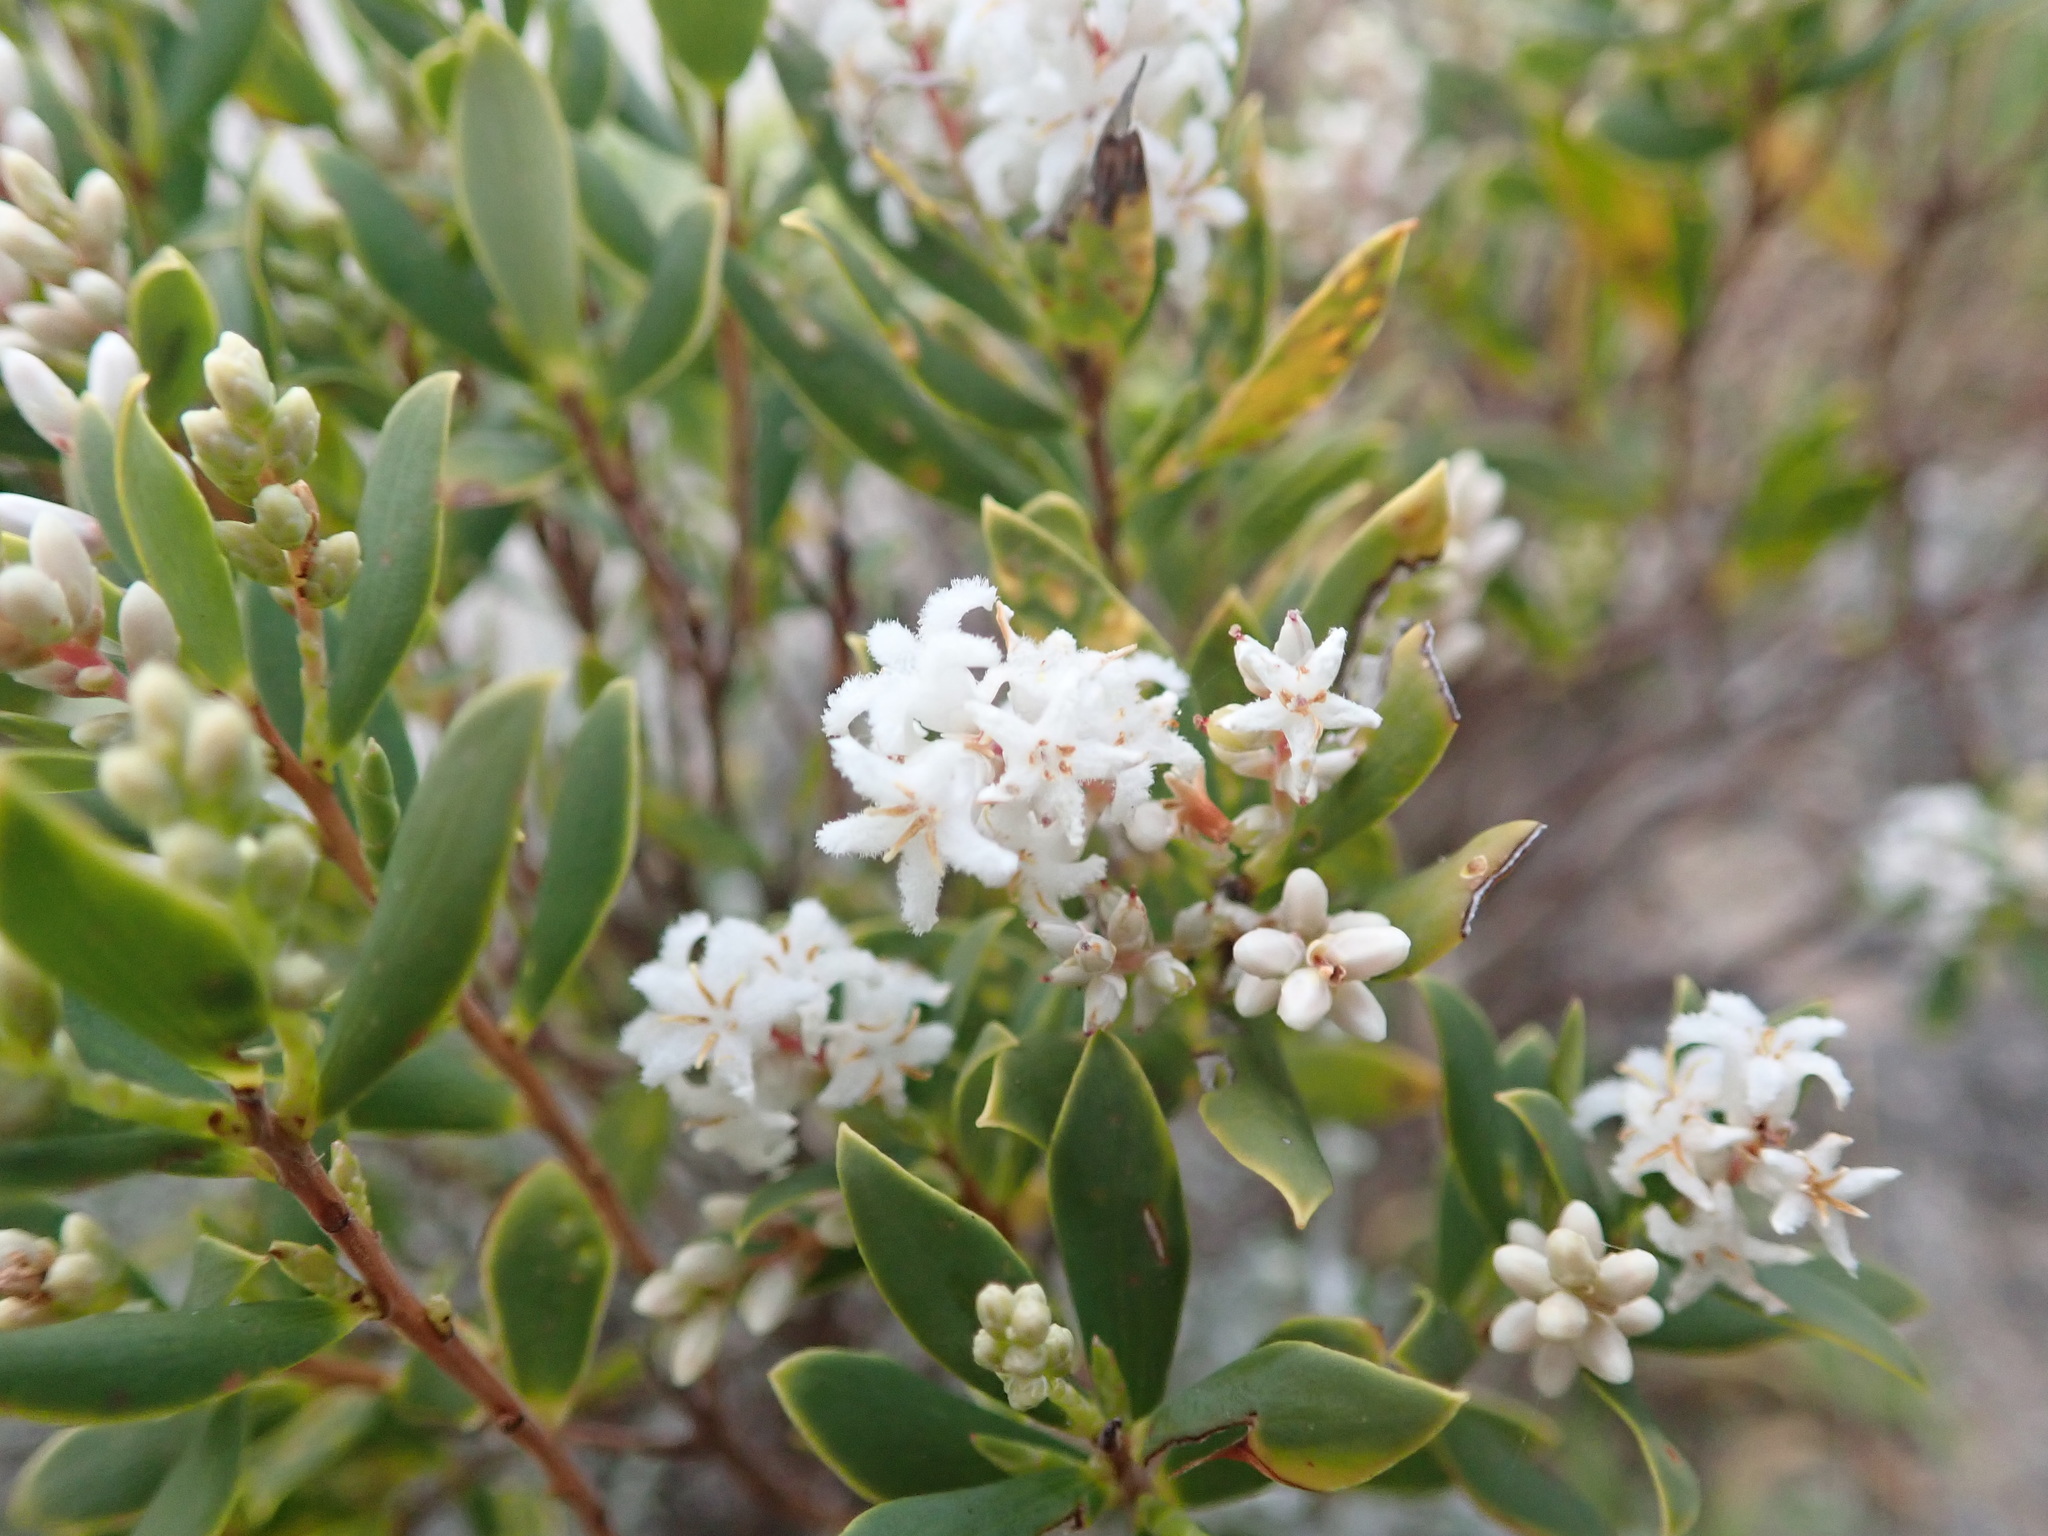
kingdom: Plantae
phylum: Tracheophyta
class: Magnoliopsida
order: Ericales
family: Ericaceae
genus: Leptecophylla
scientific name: Leptecophylla parvifolia
